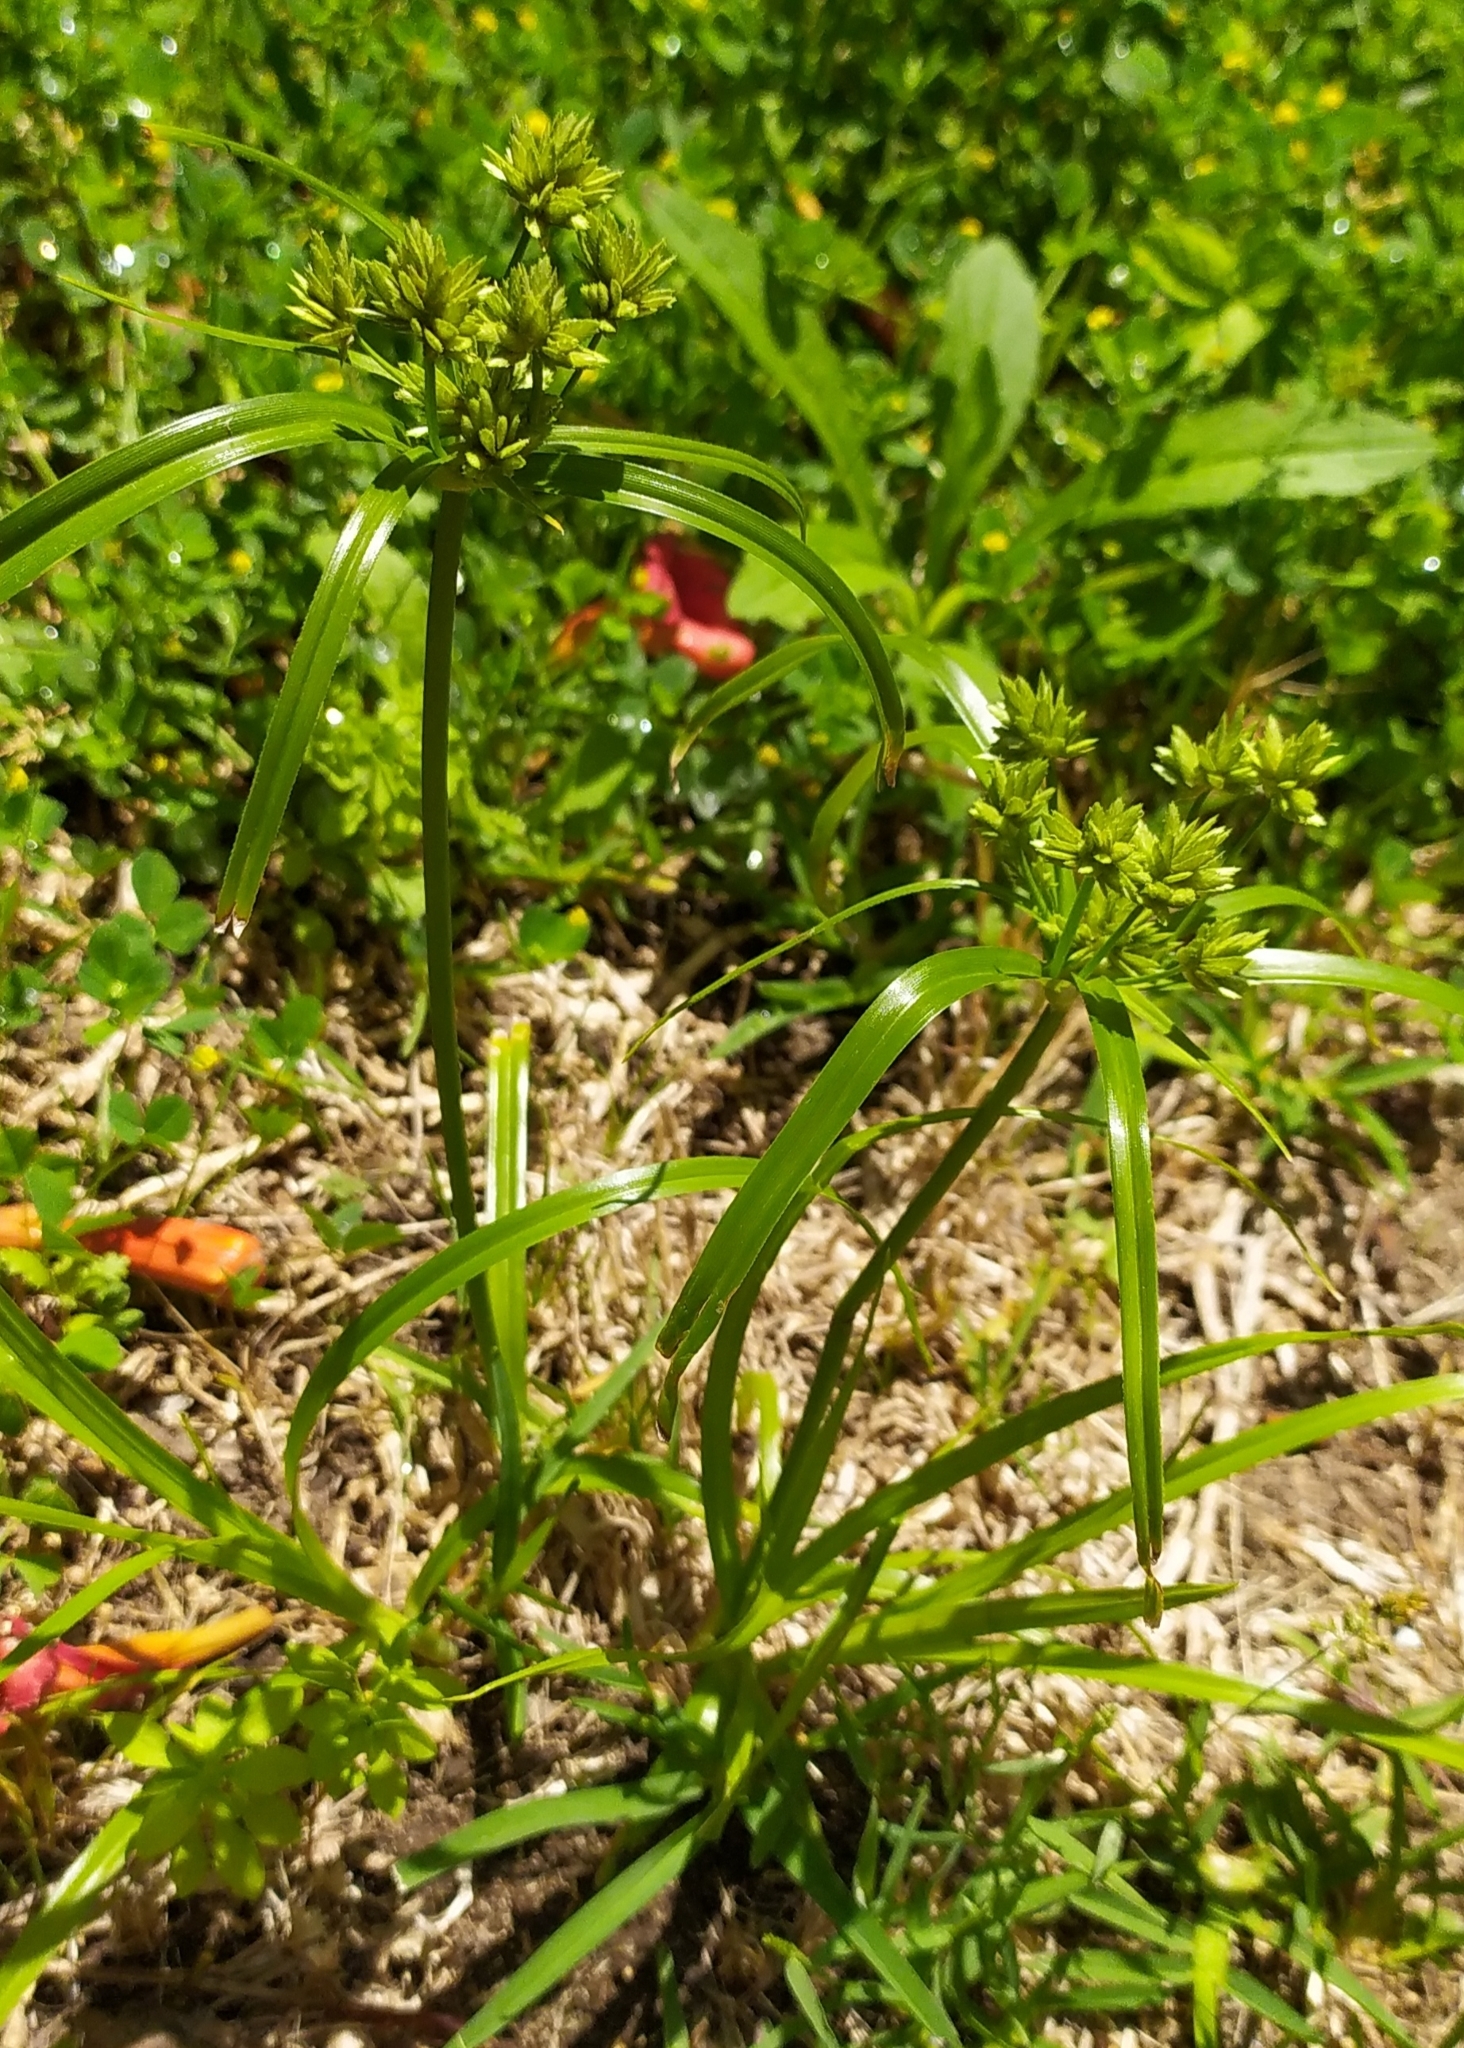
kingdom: Plantae
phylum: Tracheophyta
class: Liliopsida
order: Poales
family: Cyperaceae
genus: Cyperus
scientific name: Cyperus eragrostis
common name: Tall flatsedge
